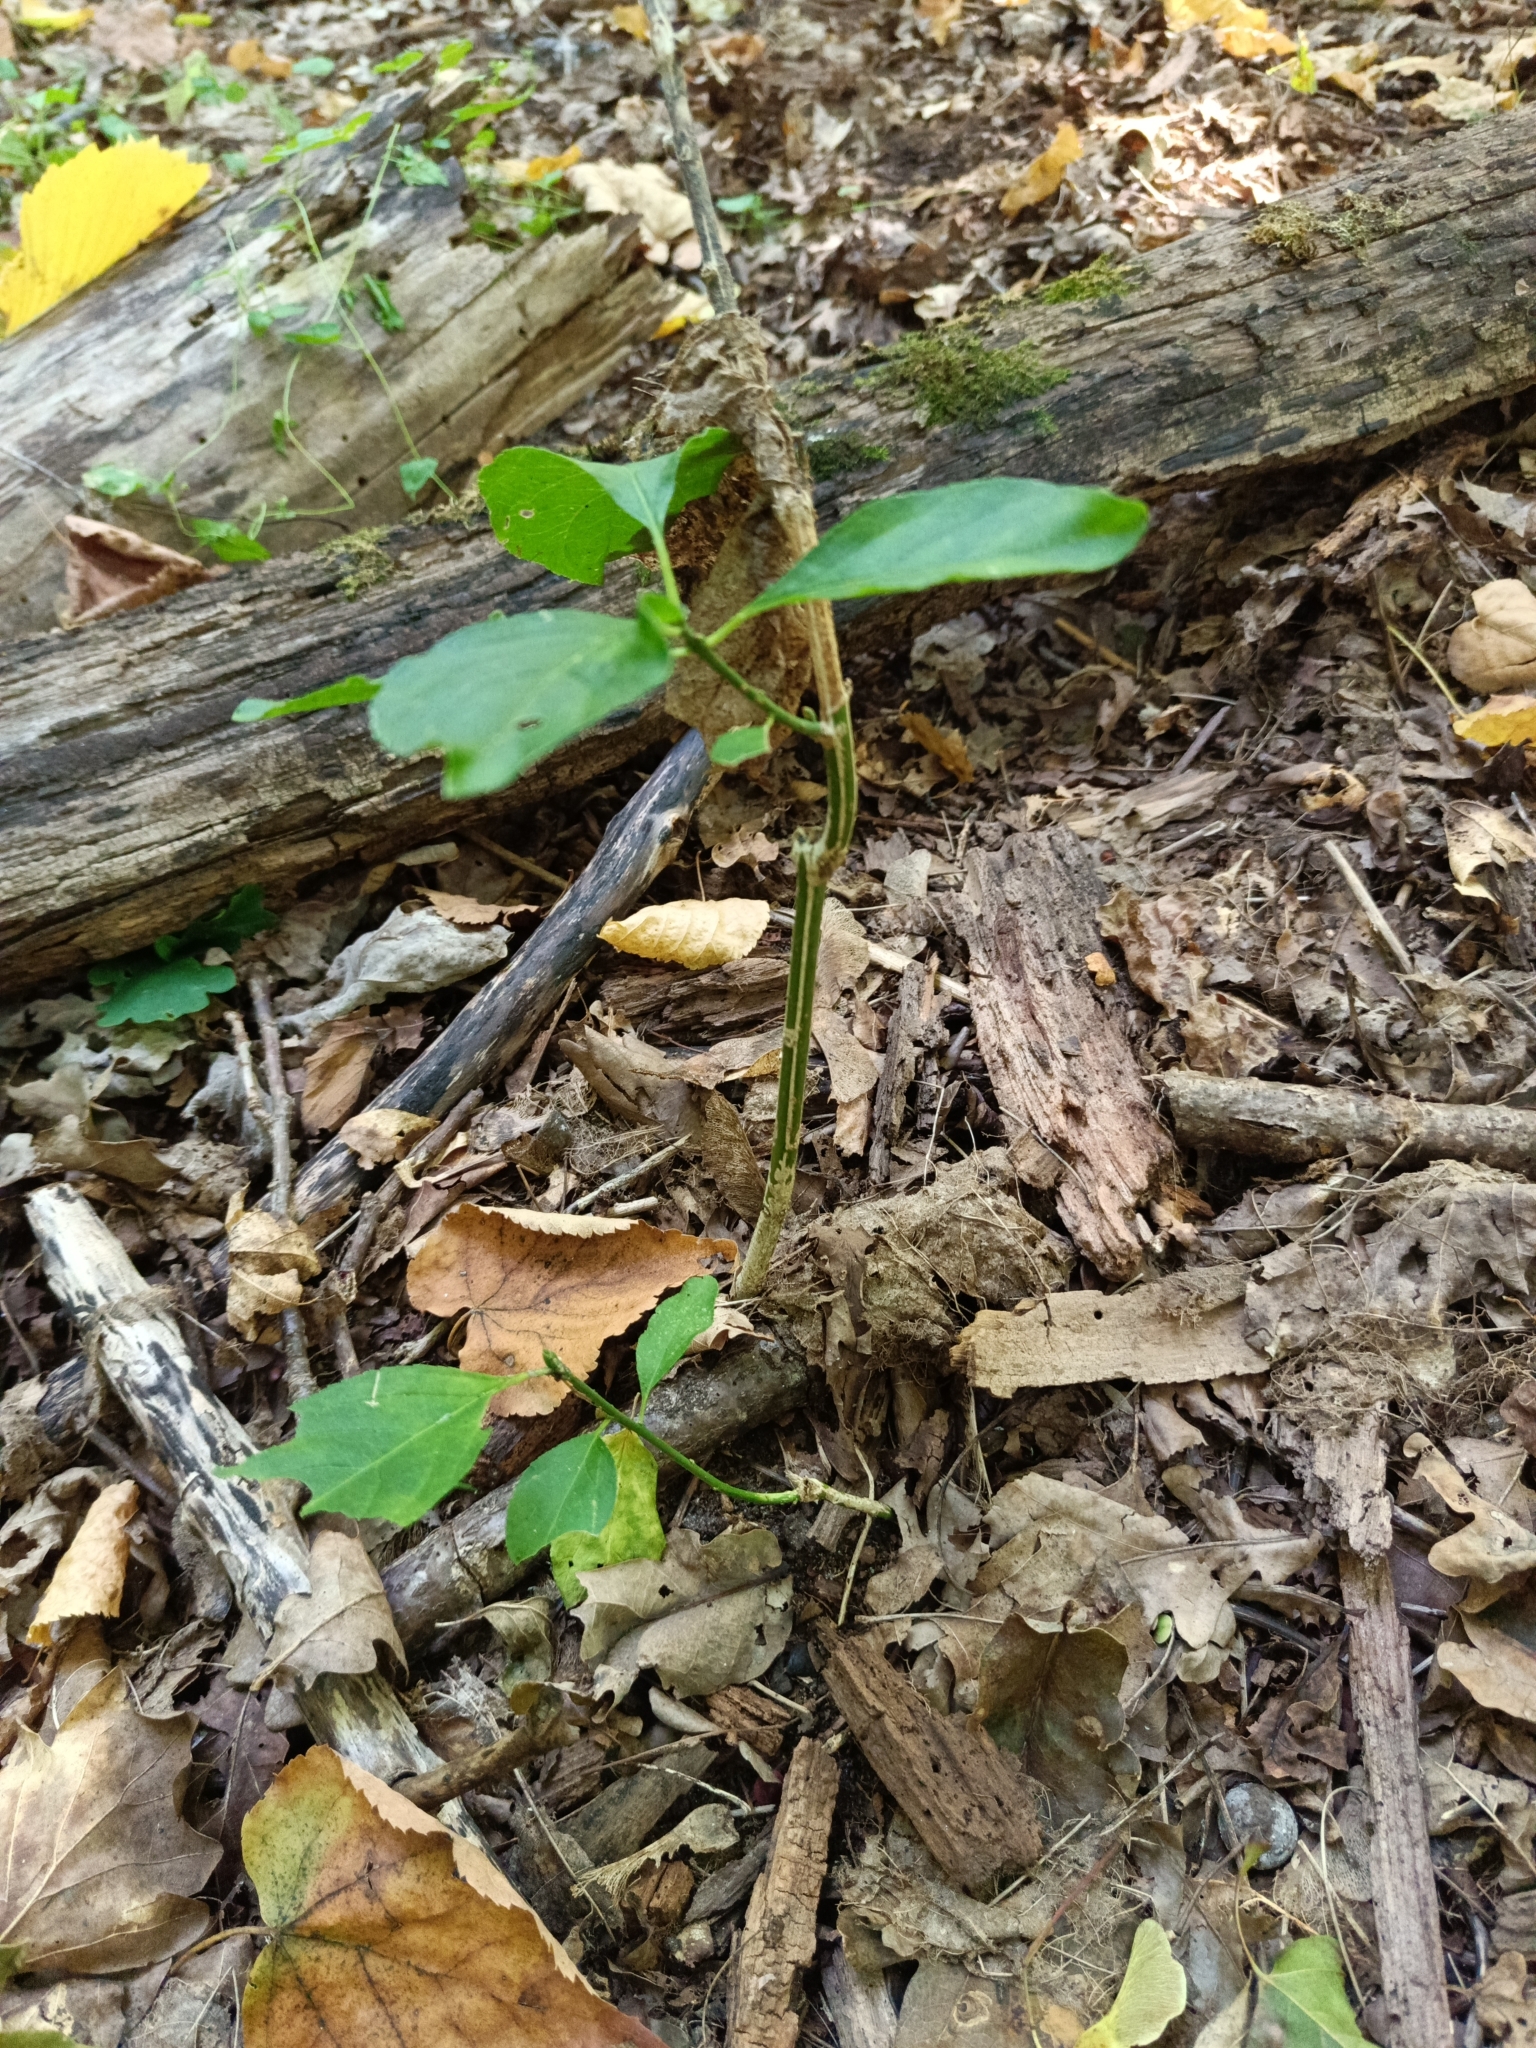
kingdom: Plantae
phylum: Tracheophyta
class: Magnoliopsida
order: Celastrales
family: Celastraceae
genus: Euonymus
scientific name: Euonymus europaeus
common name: Spindle
